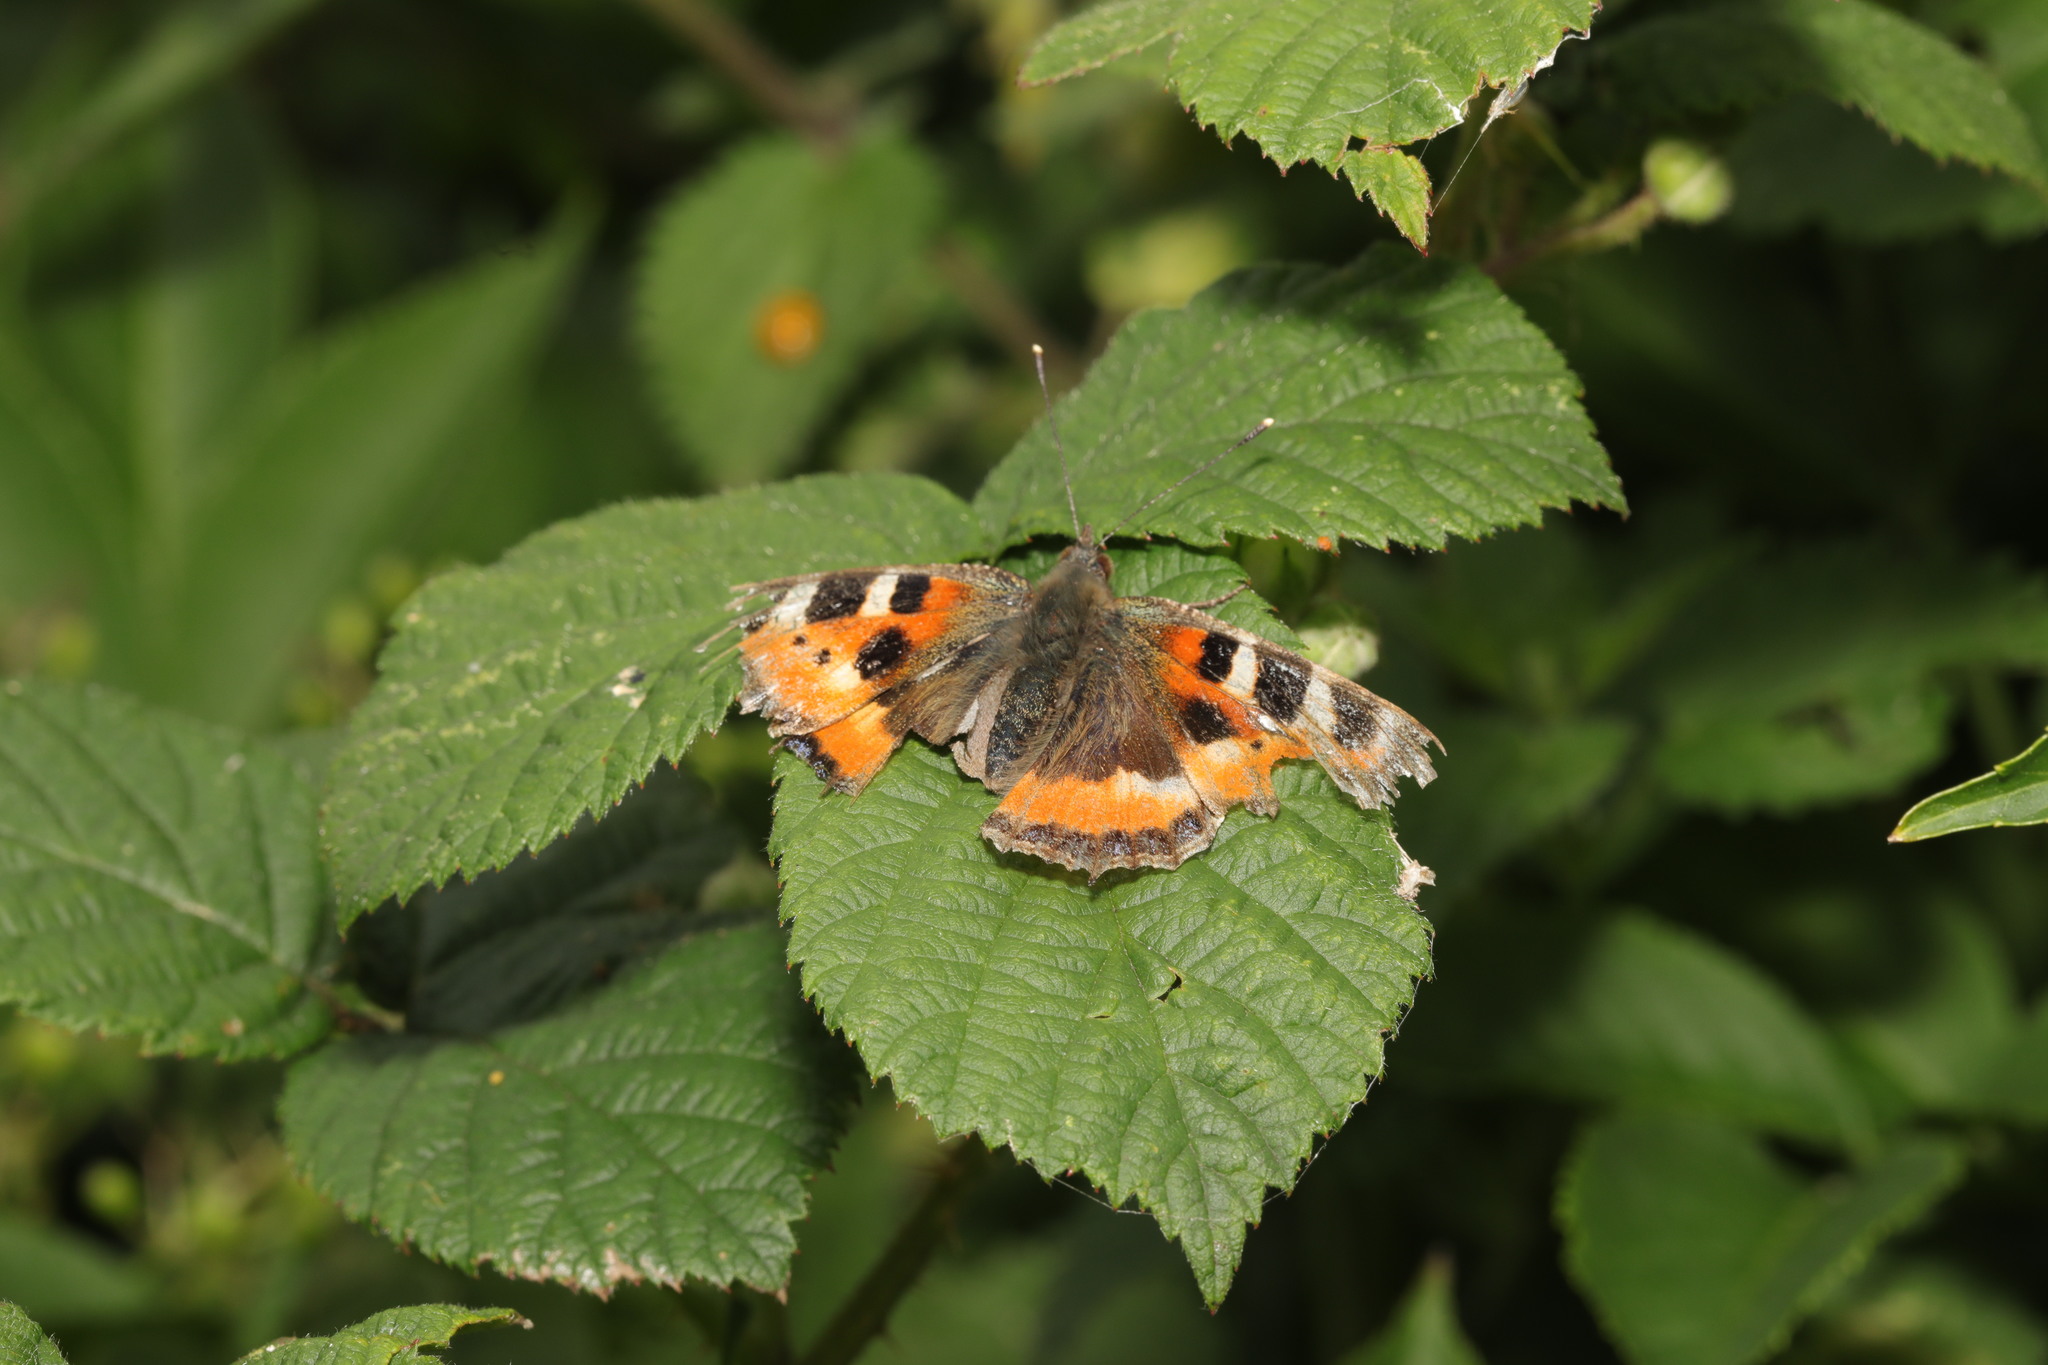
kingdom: Animalia
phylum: Arthropoda
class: Insecta
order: Lepidoptera
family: Nymphalidae
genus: Aglais
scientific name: Aglais urticae
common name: Small tortoiseshell
